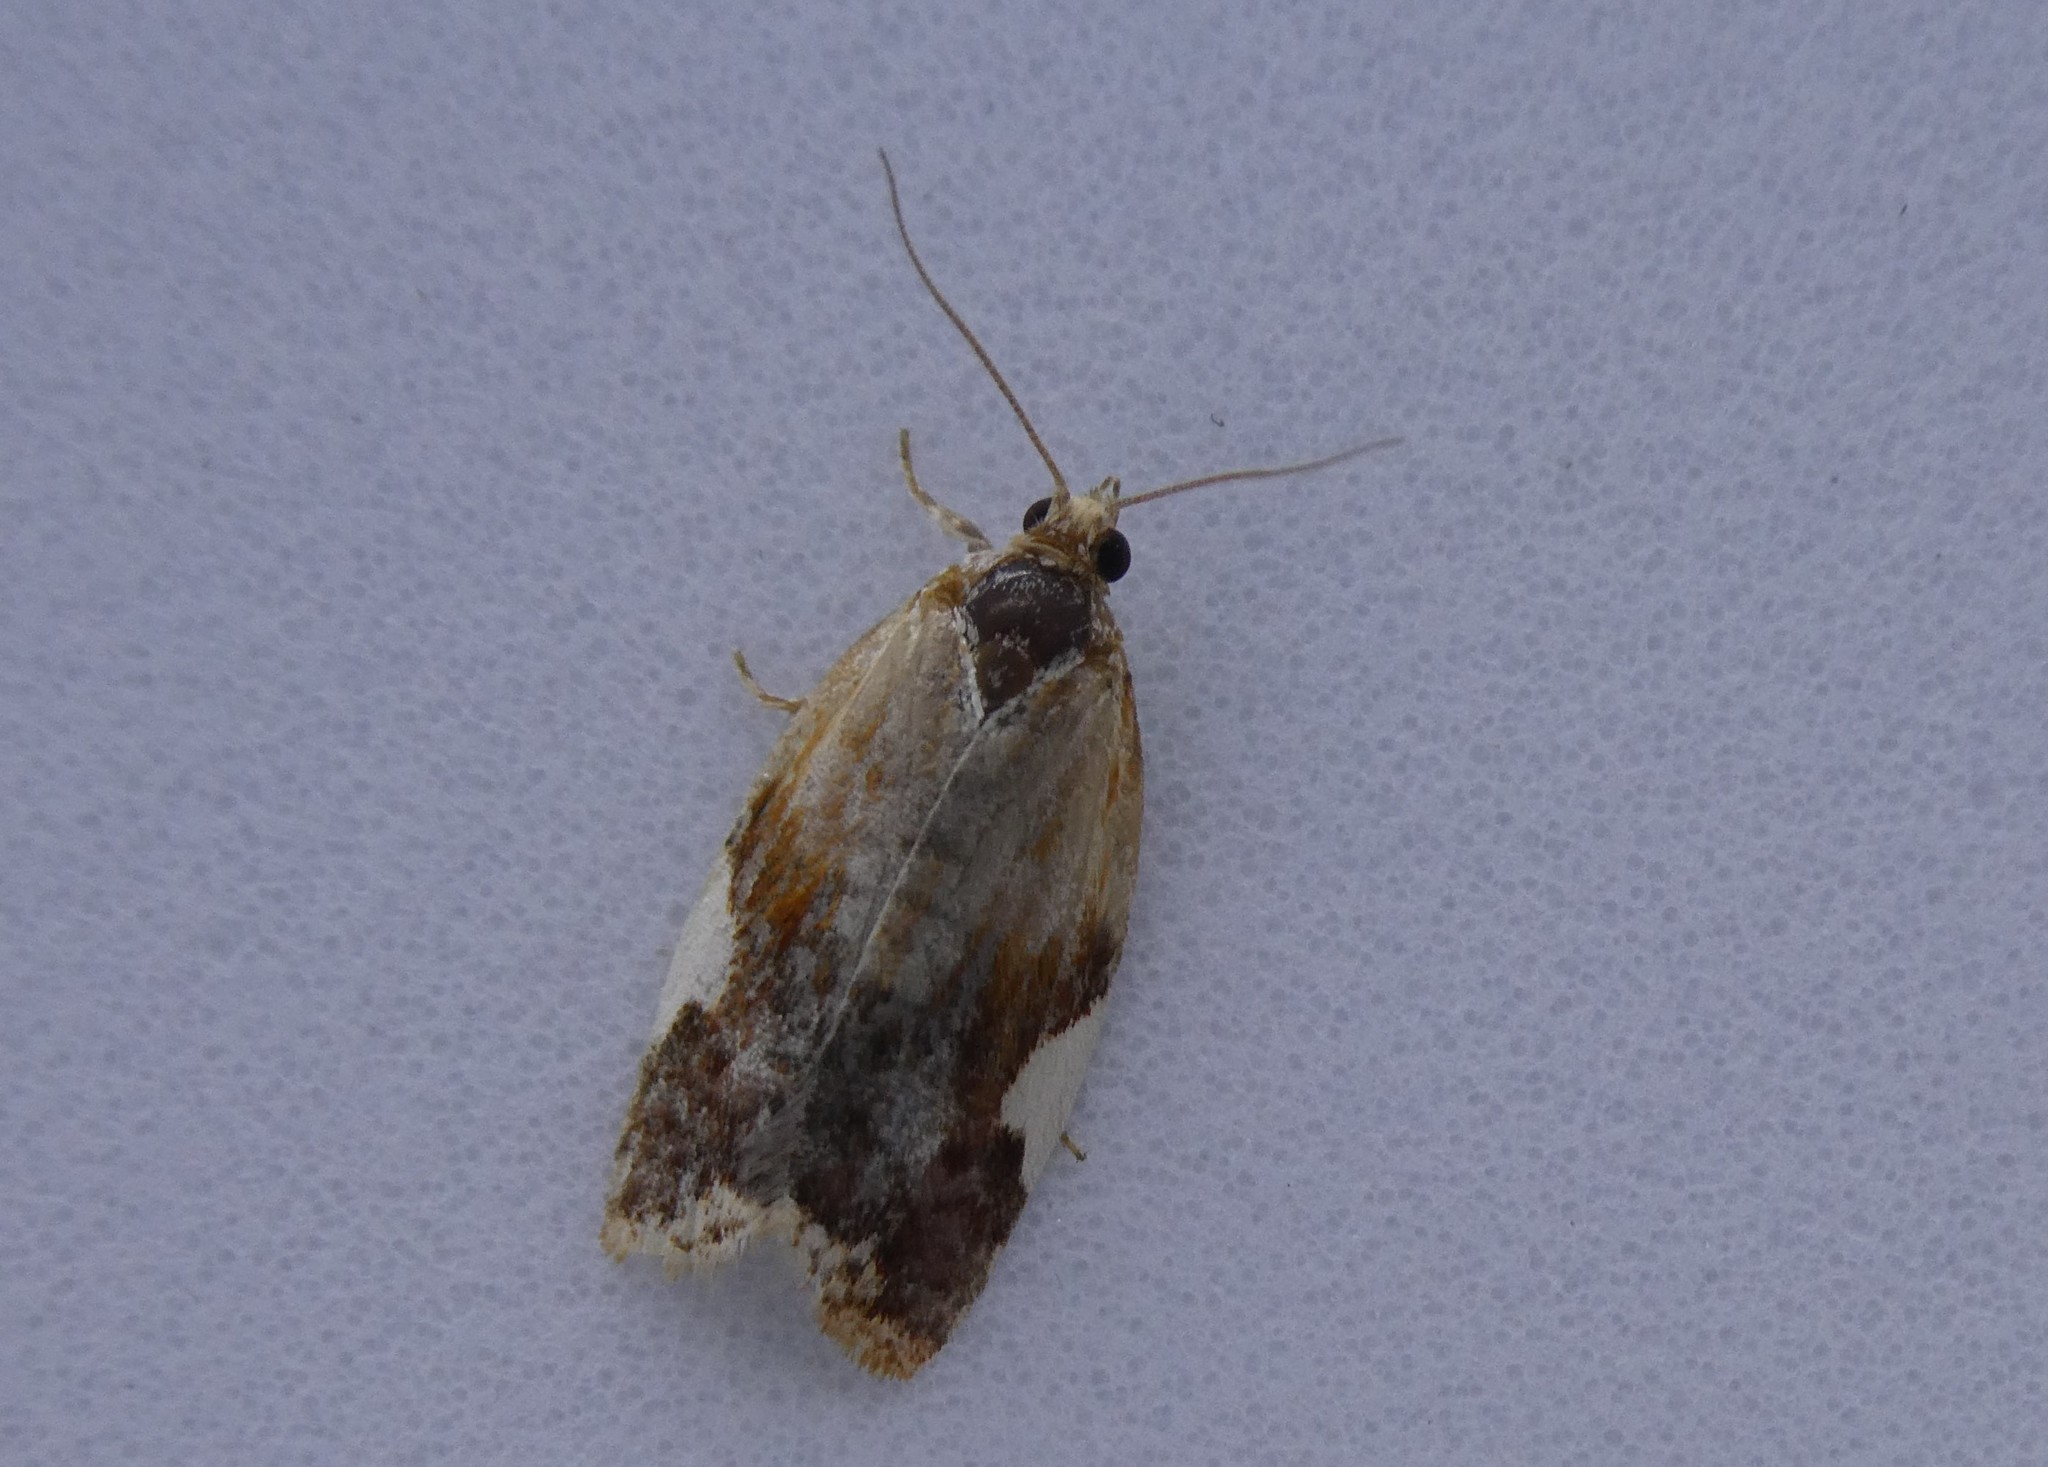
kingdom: Animalia
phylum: Arthropoda
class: Insecta
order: Lepidoptera
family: Tortricidae
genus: Clepsis
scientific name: Clepsis persicana
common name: White triangle tortrix
